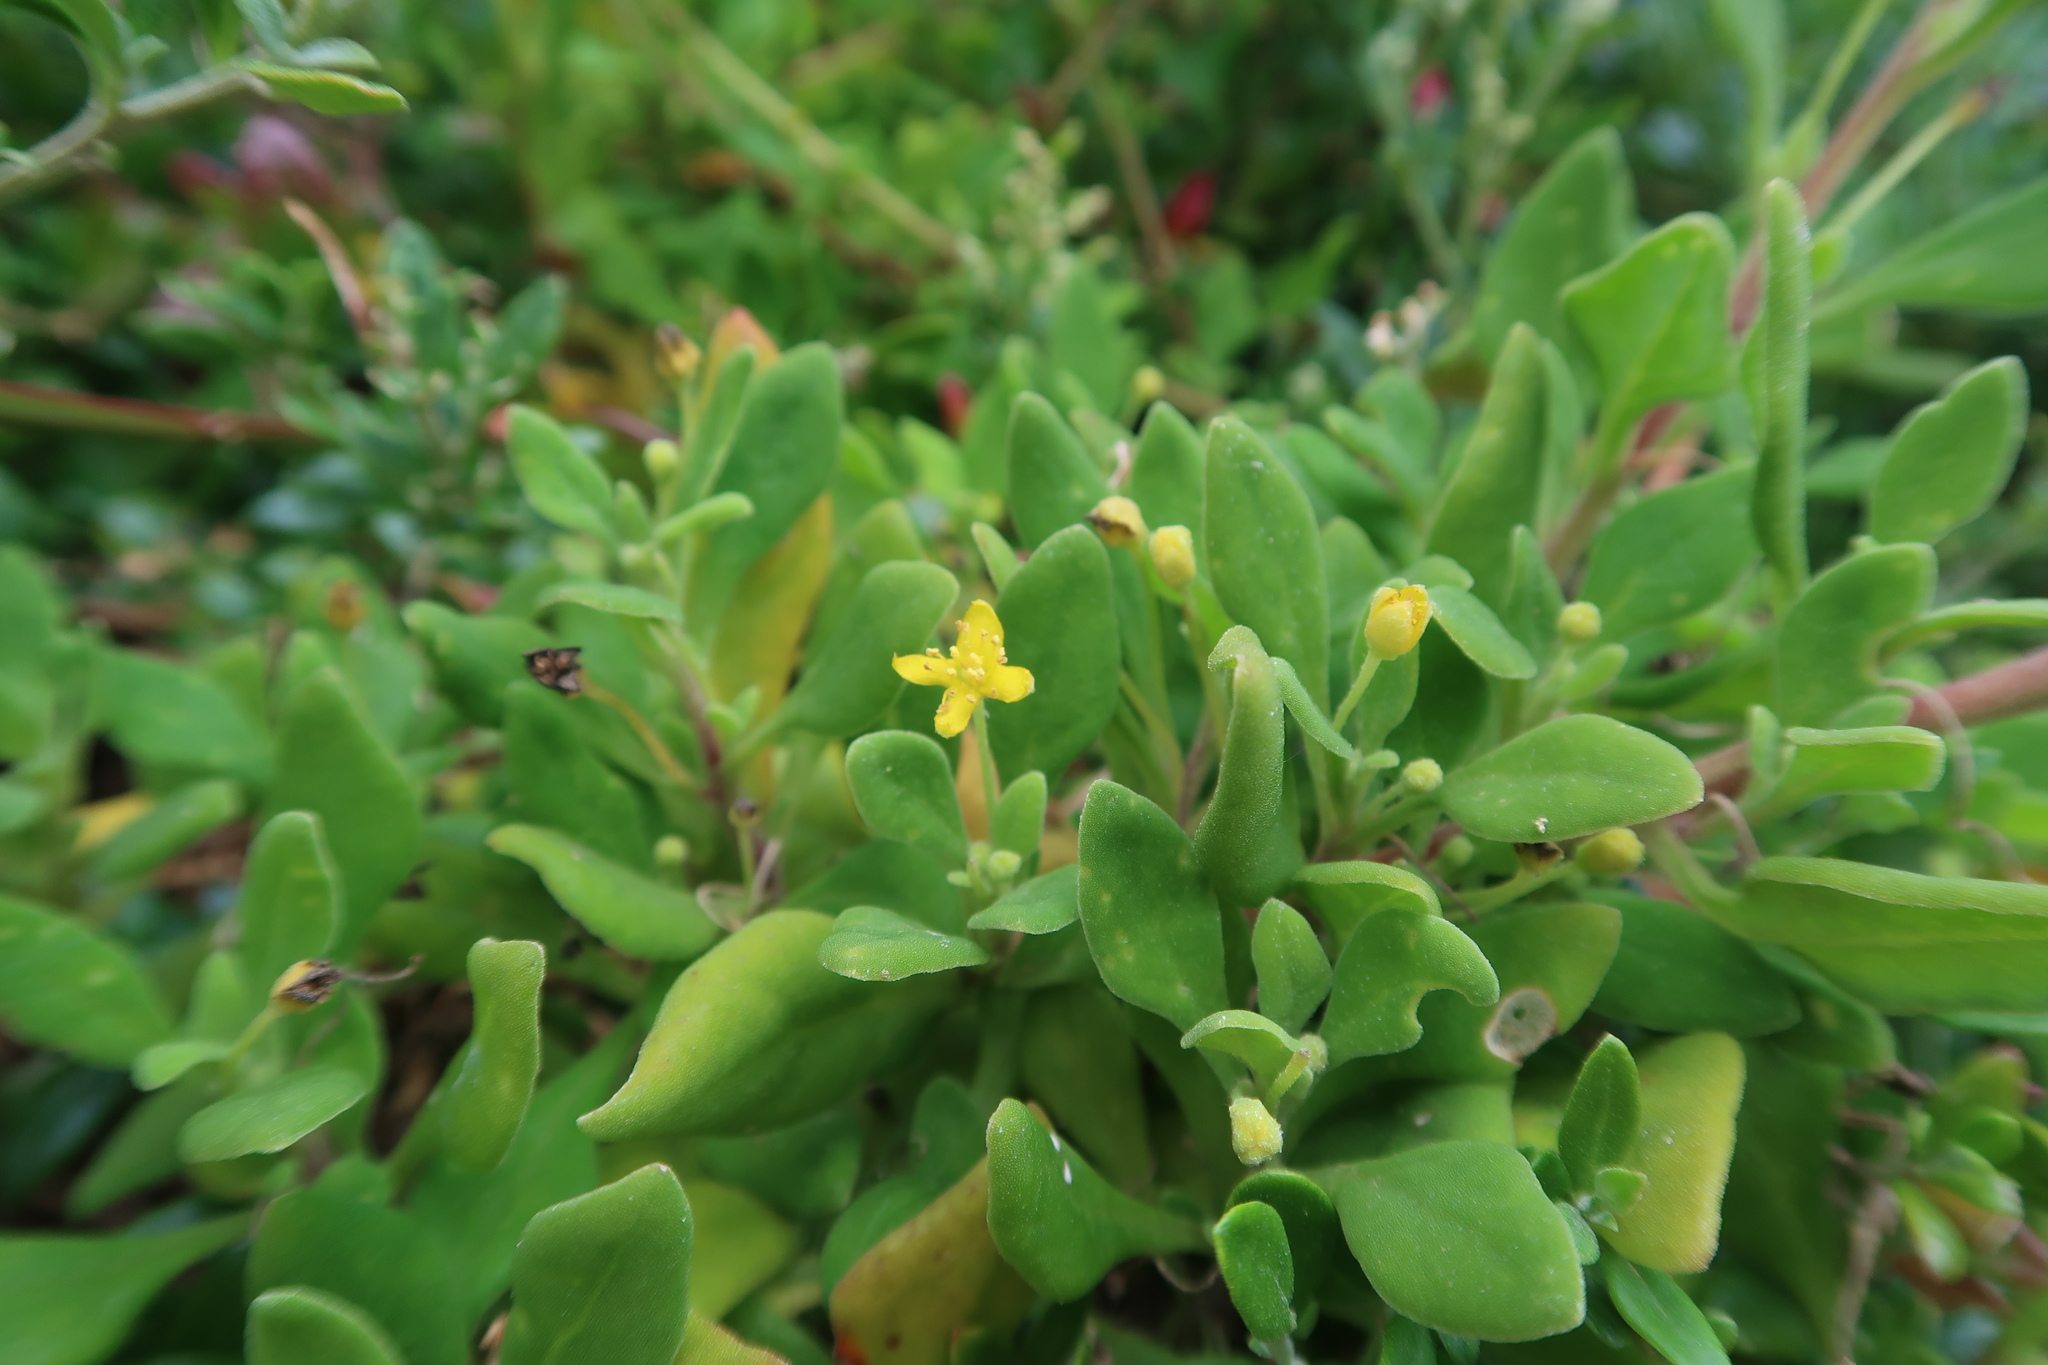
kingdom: Plantae
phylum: Tracheophyta
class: Magnoliopsida
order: Caryophyllales
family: Aizoaceae
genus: Tetragonia
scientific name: Tetragonia implexicoma
